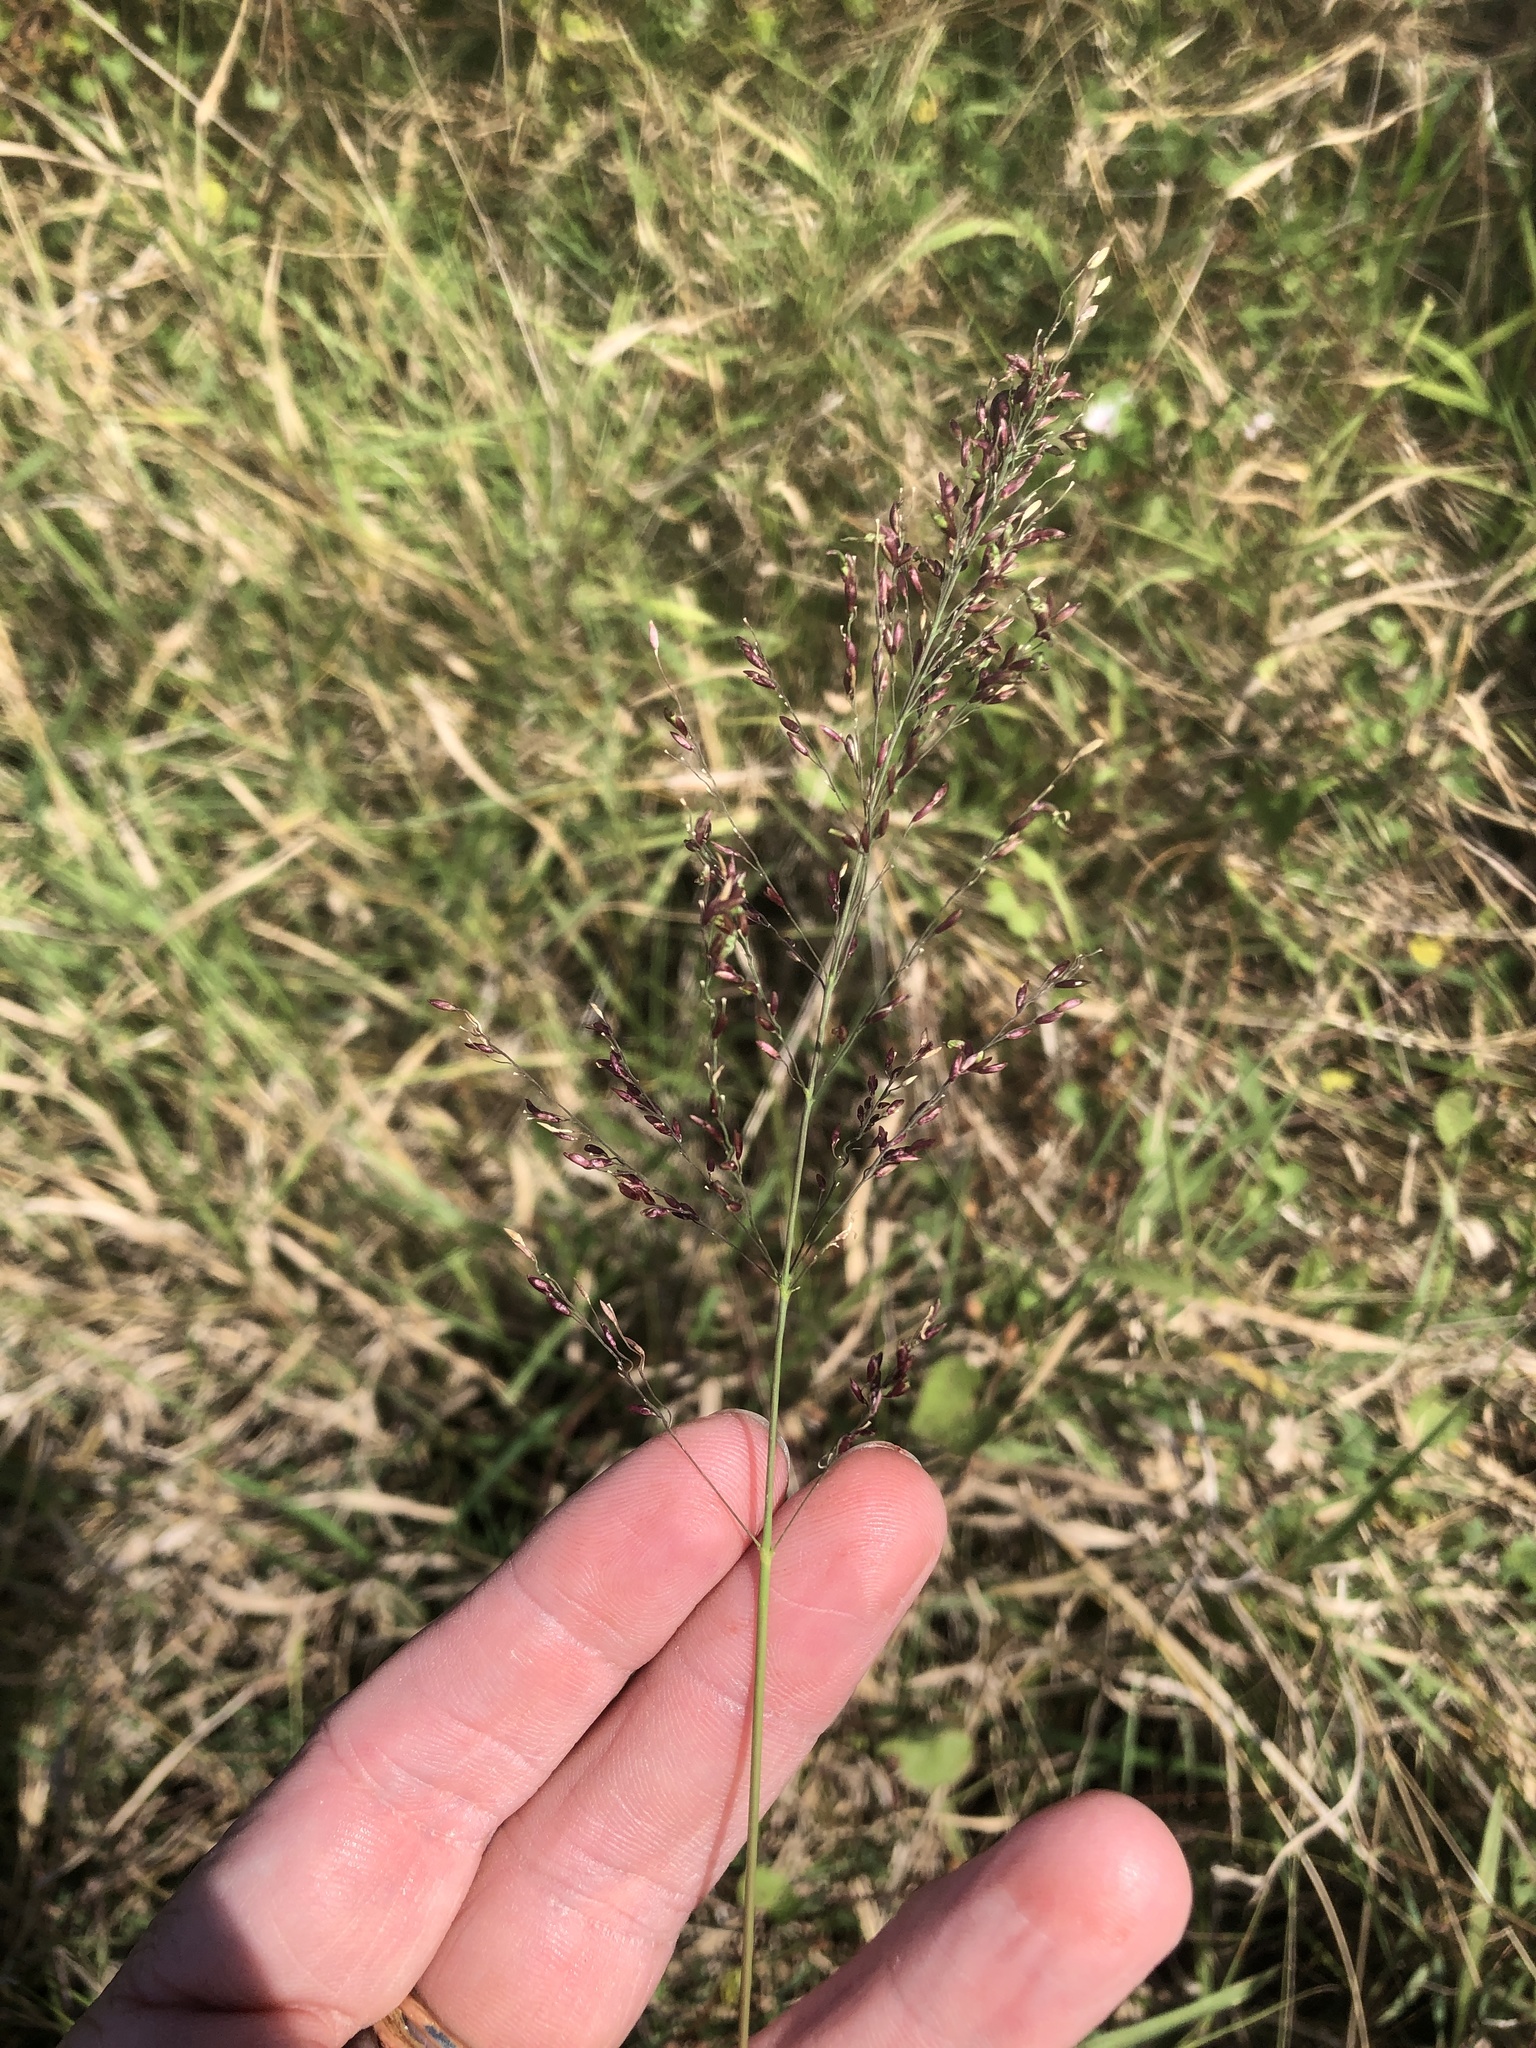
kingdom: Plantae
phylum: Tracheophyta
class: Liliopsida
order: Poales
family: Poaceae
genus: Megathyrsus
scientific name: Megathyrsus maximus
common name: Guineagrass
